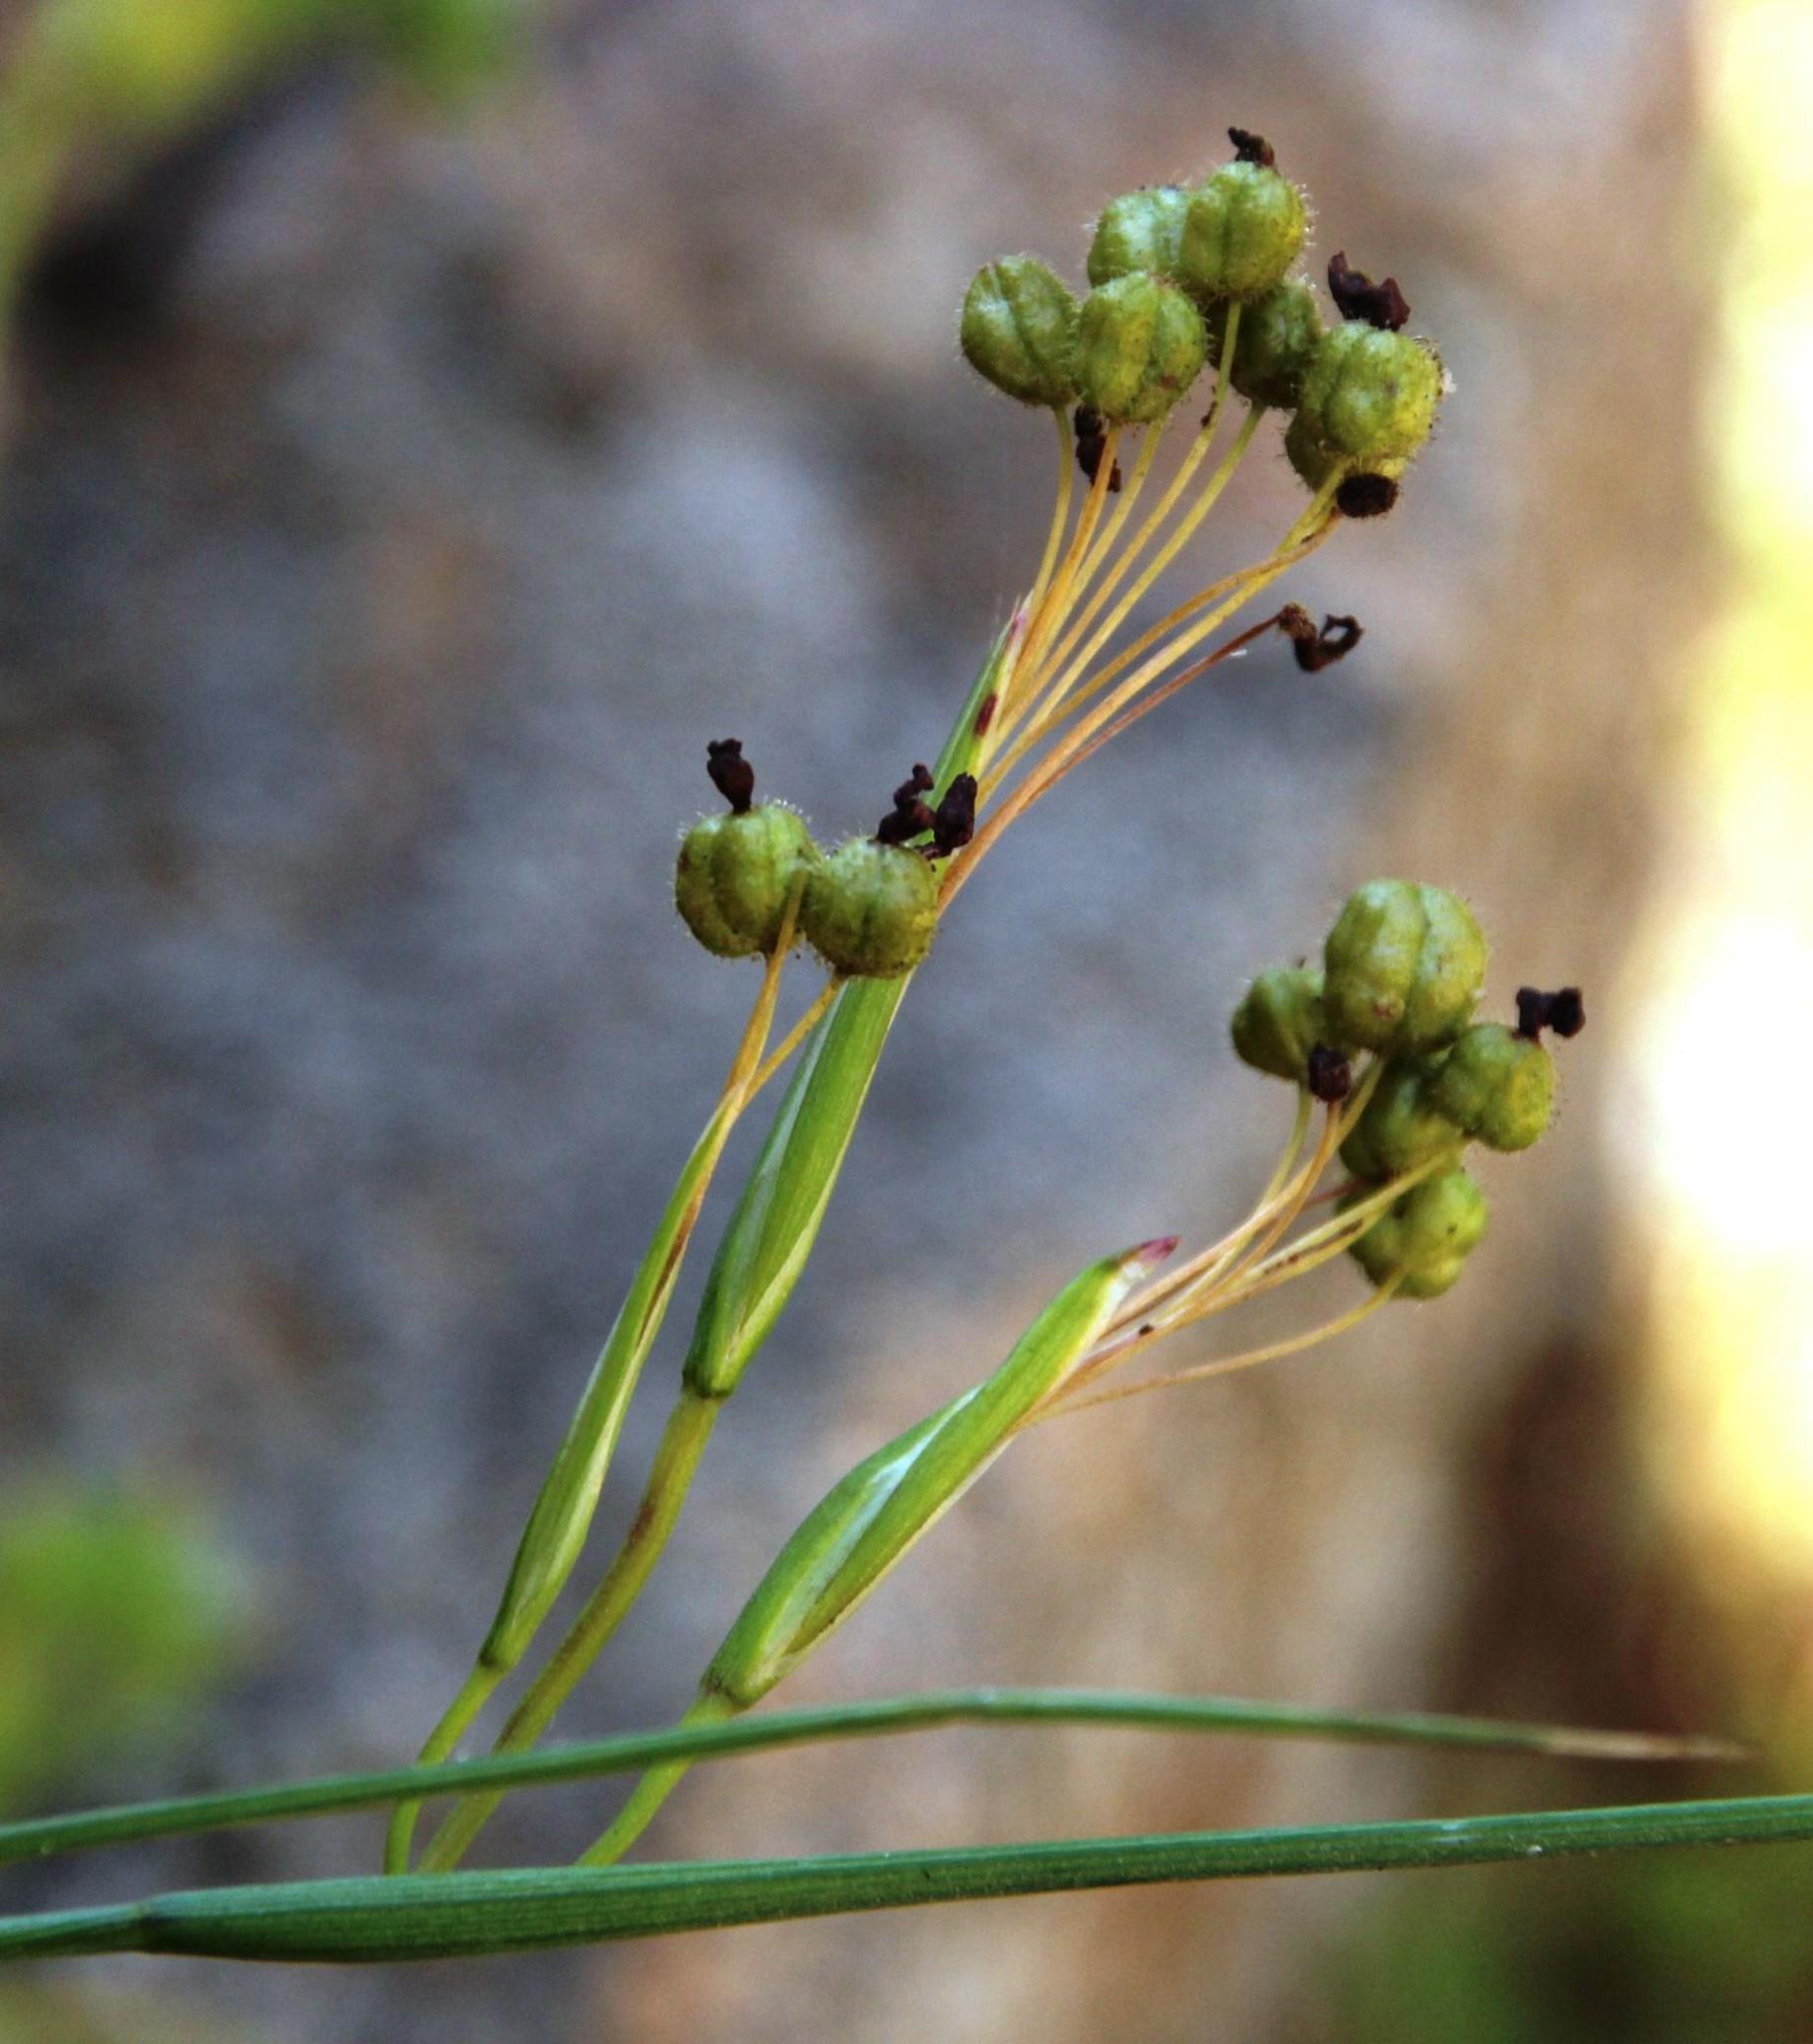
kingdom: Plantae
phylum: Tracheophyta
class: Liliopsida
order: Asparagales
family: Iridaceae
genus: Olsynium
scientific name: Olsynium scirpoideum
